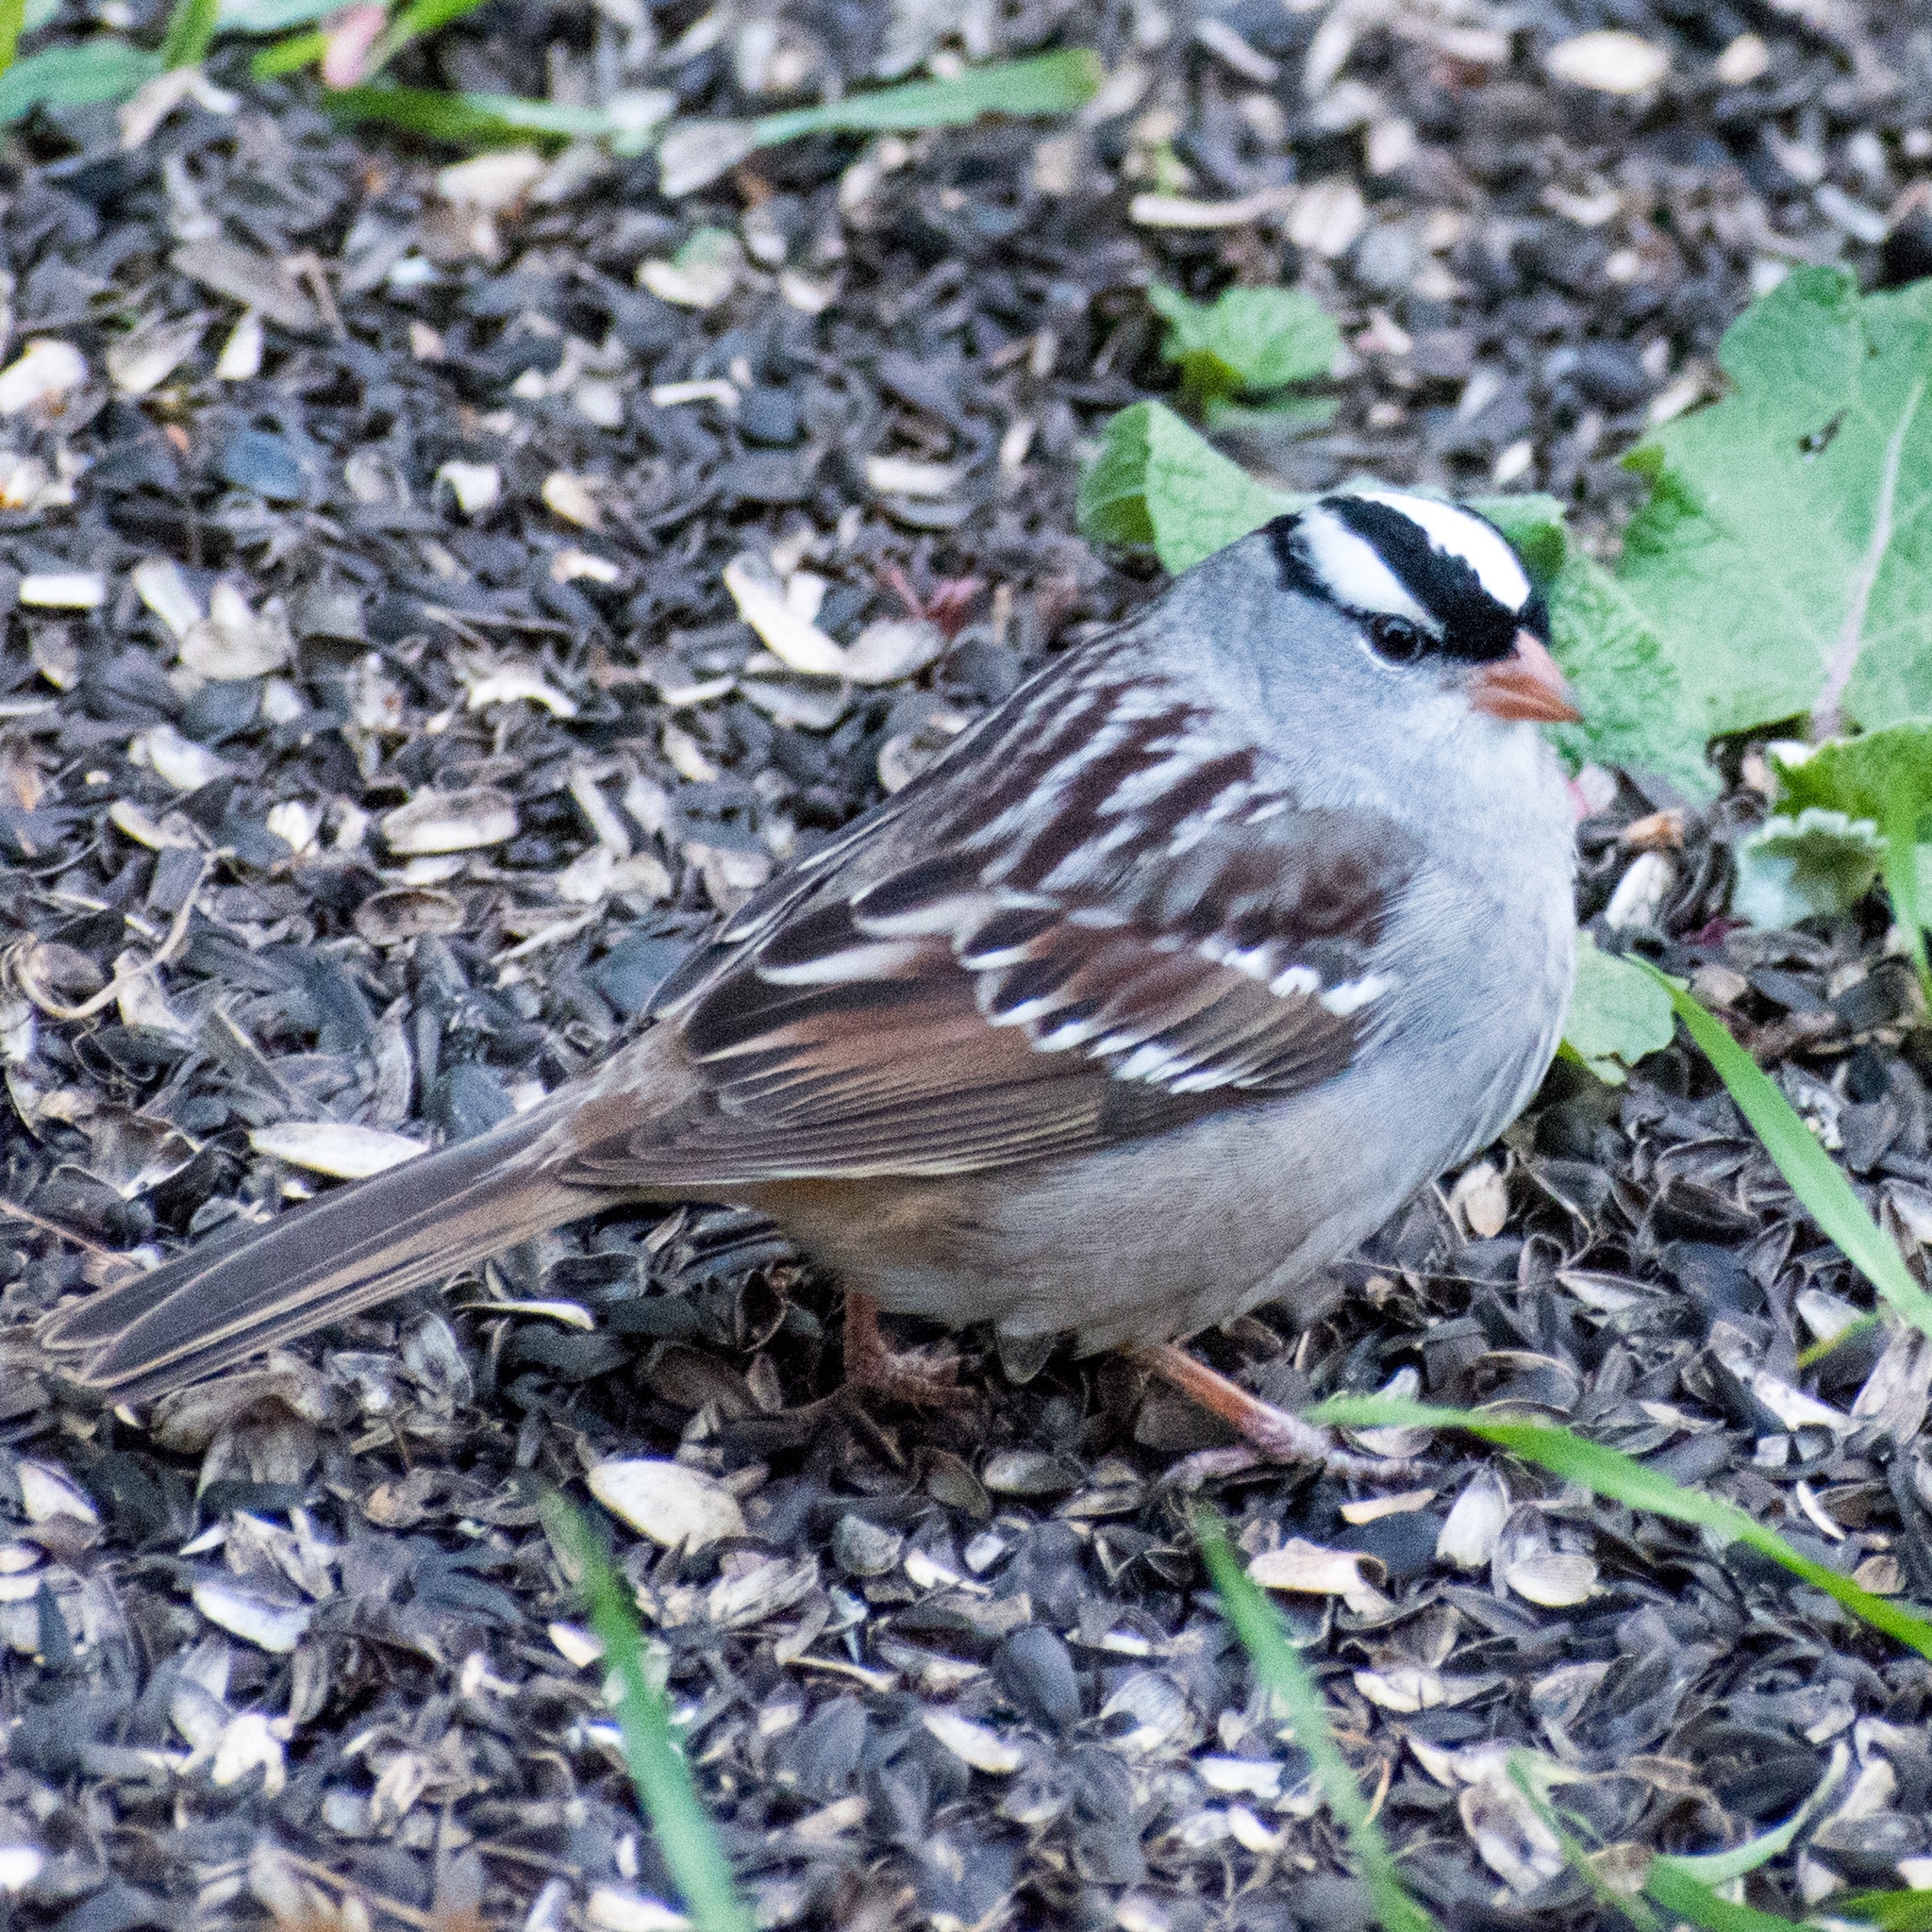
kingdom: Animalia
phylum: Chordata
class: Aves
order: Passeriformes
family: Passerellidae
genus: Zonotrichia
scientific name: Zonotrichia leucophrys
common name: White-crowned sparrow
